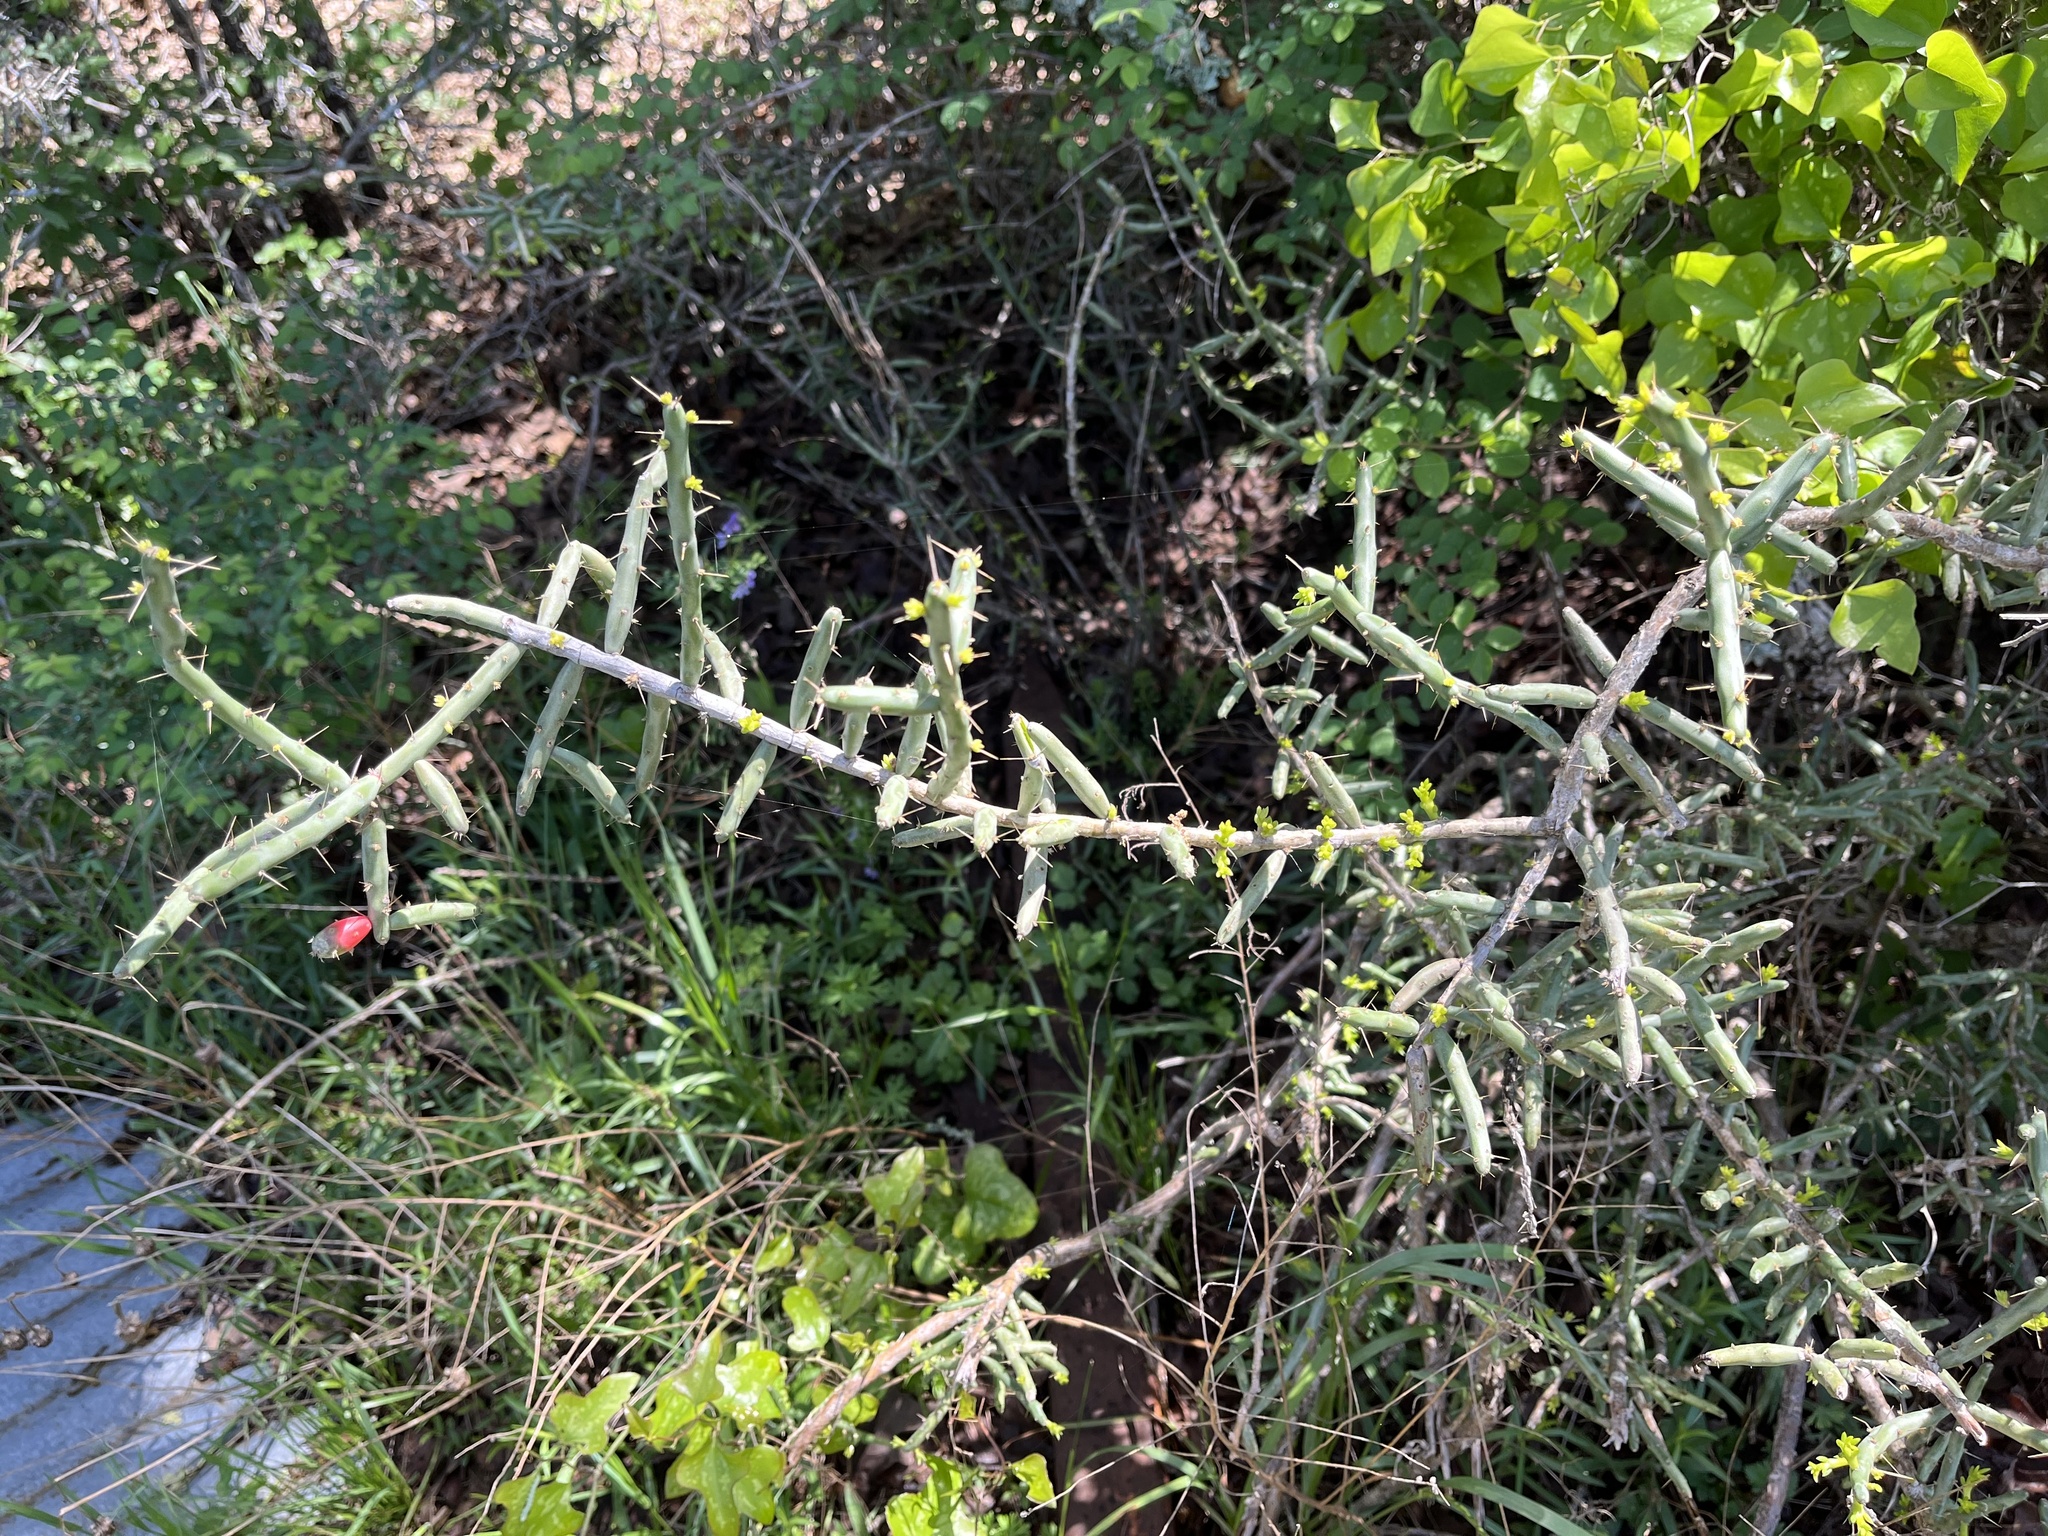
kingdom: Plantae
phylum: Tracheophyta
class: Magnoliopsida
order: Caryophyllales
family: Cactaceae
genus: Cylindropuntia
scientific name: Cylindropuntia leptocaulis
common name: Christmas cactus
